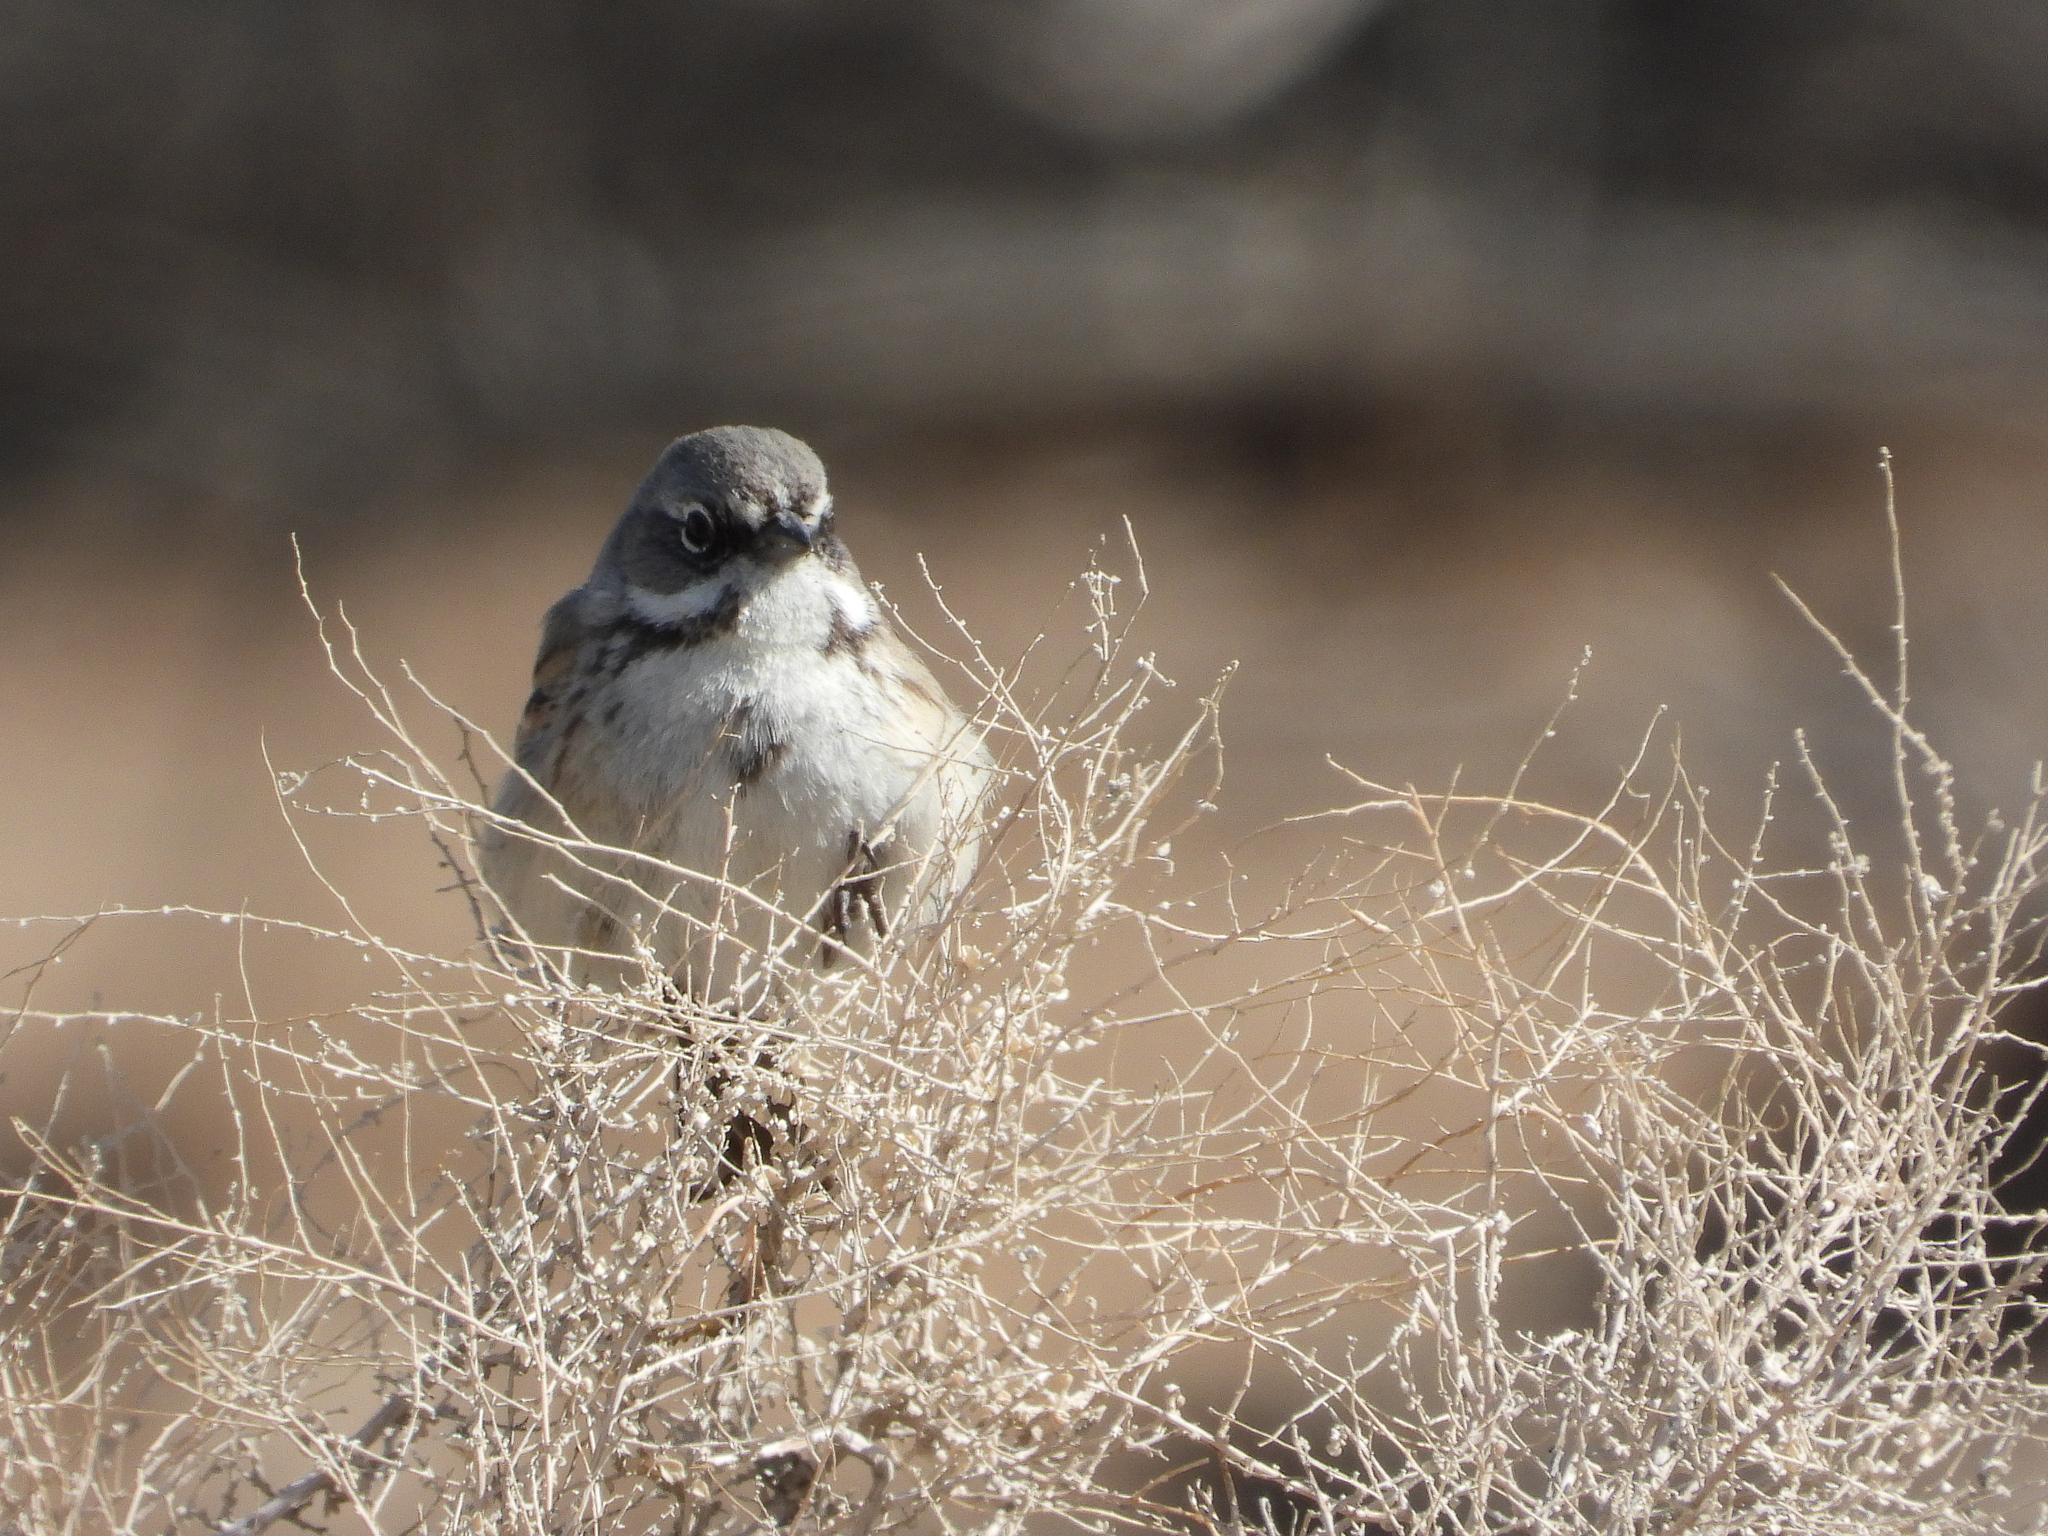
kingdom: Animalia
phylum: Chordata
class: Aves
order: Passeriformes
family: Passerellidae
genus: Artemisiospiza
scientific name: Artemisiospiza belli
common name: Bell's sparrow
